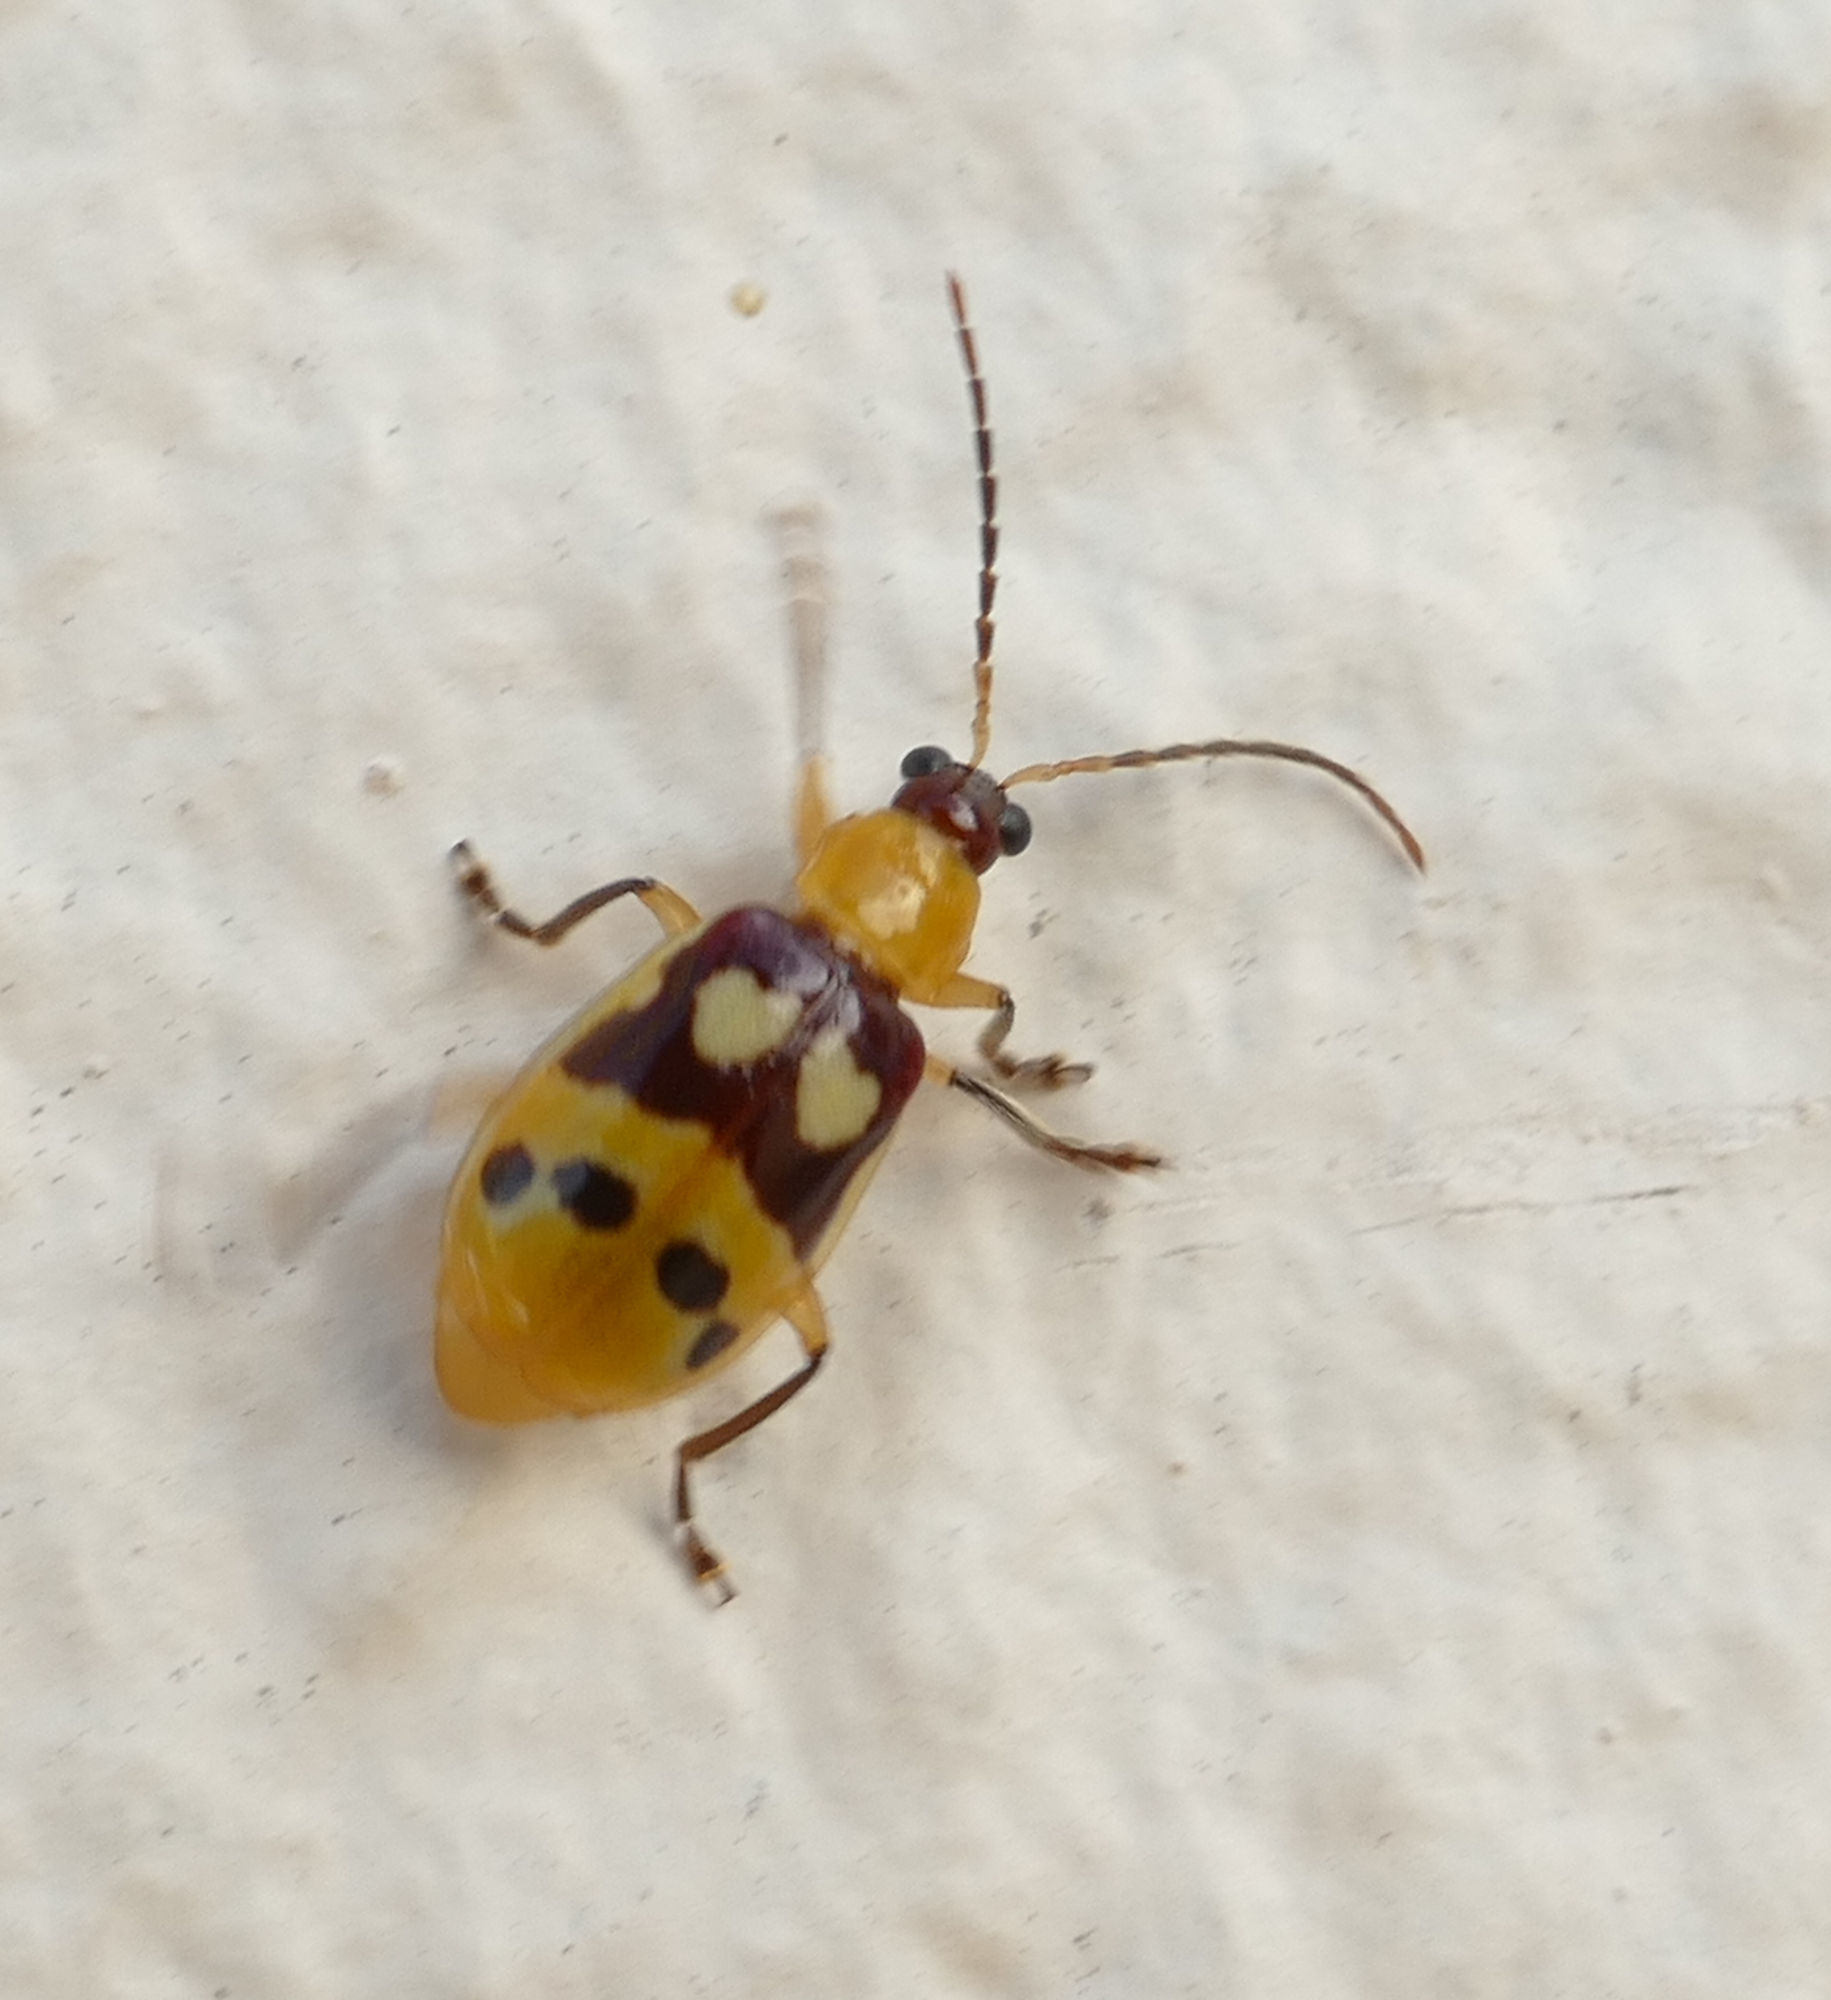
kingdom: Animalia
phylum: Arthropoda
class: Insecta
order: Coleoptera
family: Chrysomelidae
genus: Paranapiacaba
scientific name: Paranapiacaba connexa
